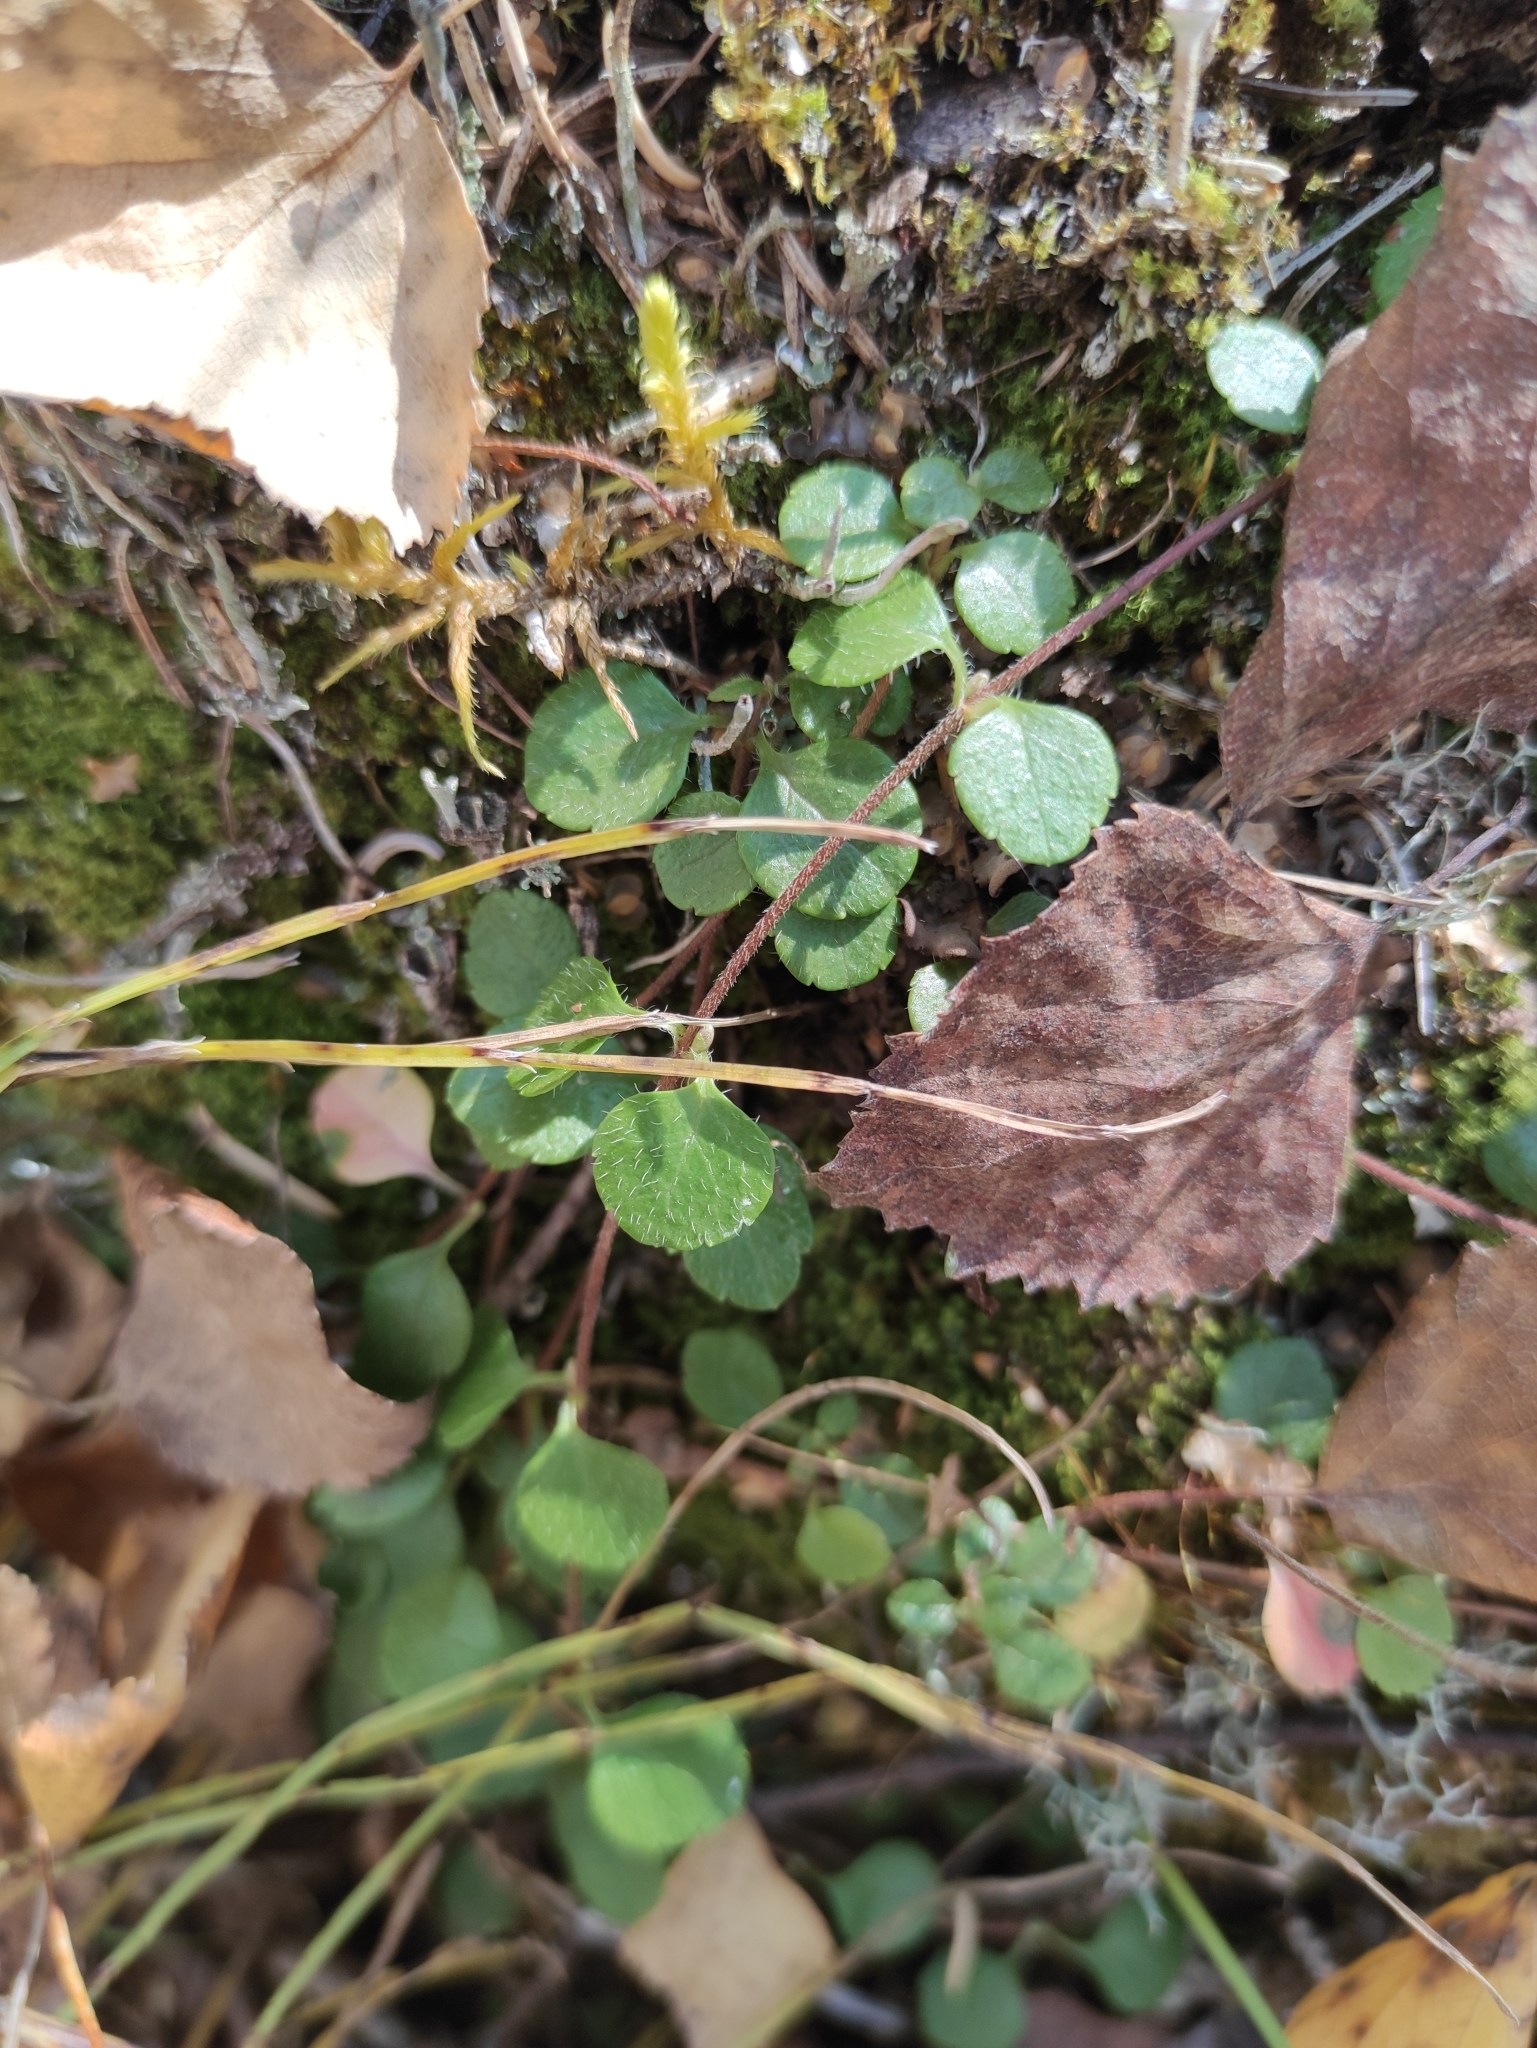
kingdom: Plantae
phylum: Tracheophyta
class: Magnoliopsida
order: Dipsacales
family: Caprifoliaceae
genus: Linnaea
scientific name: Linnaea borealis
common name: Twinflower
